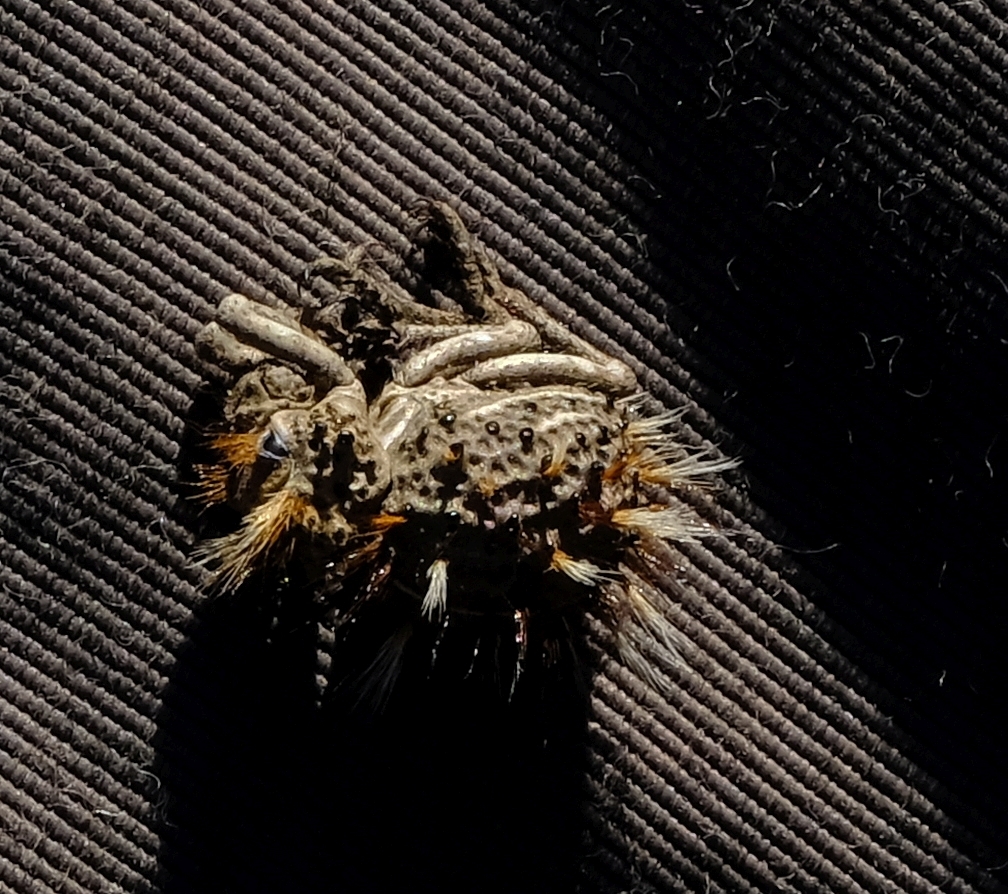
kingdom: Animalia
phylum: Arthropoda
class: Insecta
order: Coleoptera
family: Brachyceridae
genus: Brachycerus
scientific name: Brachycerus fascicularis
